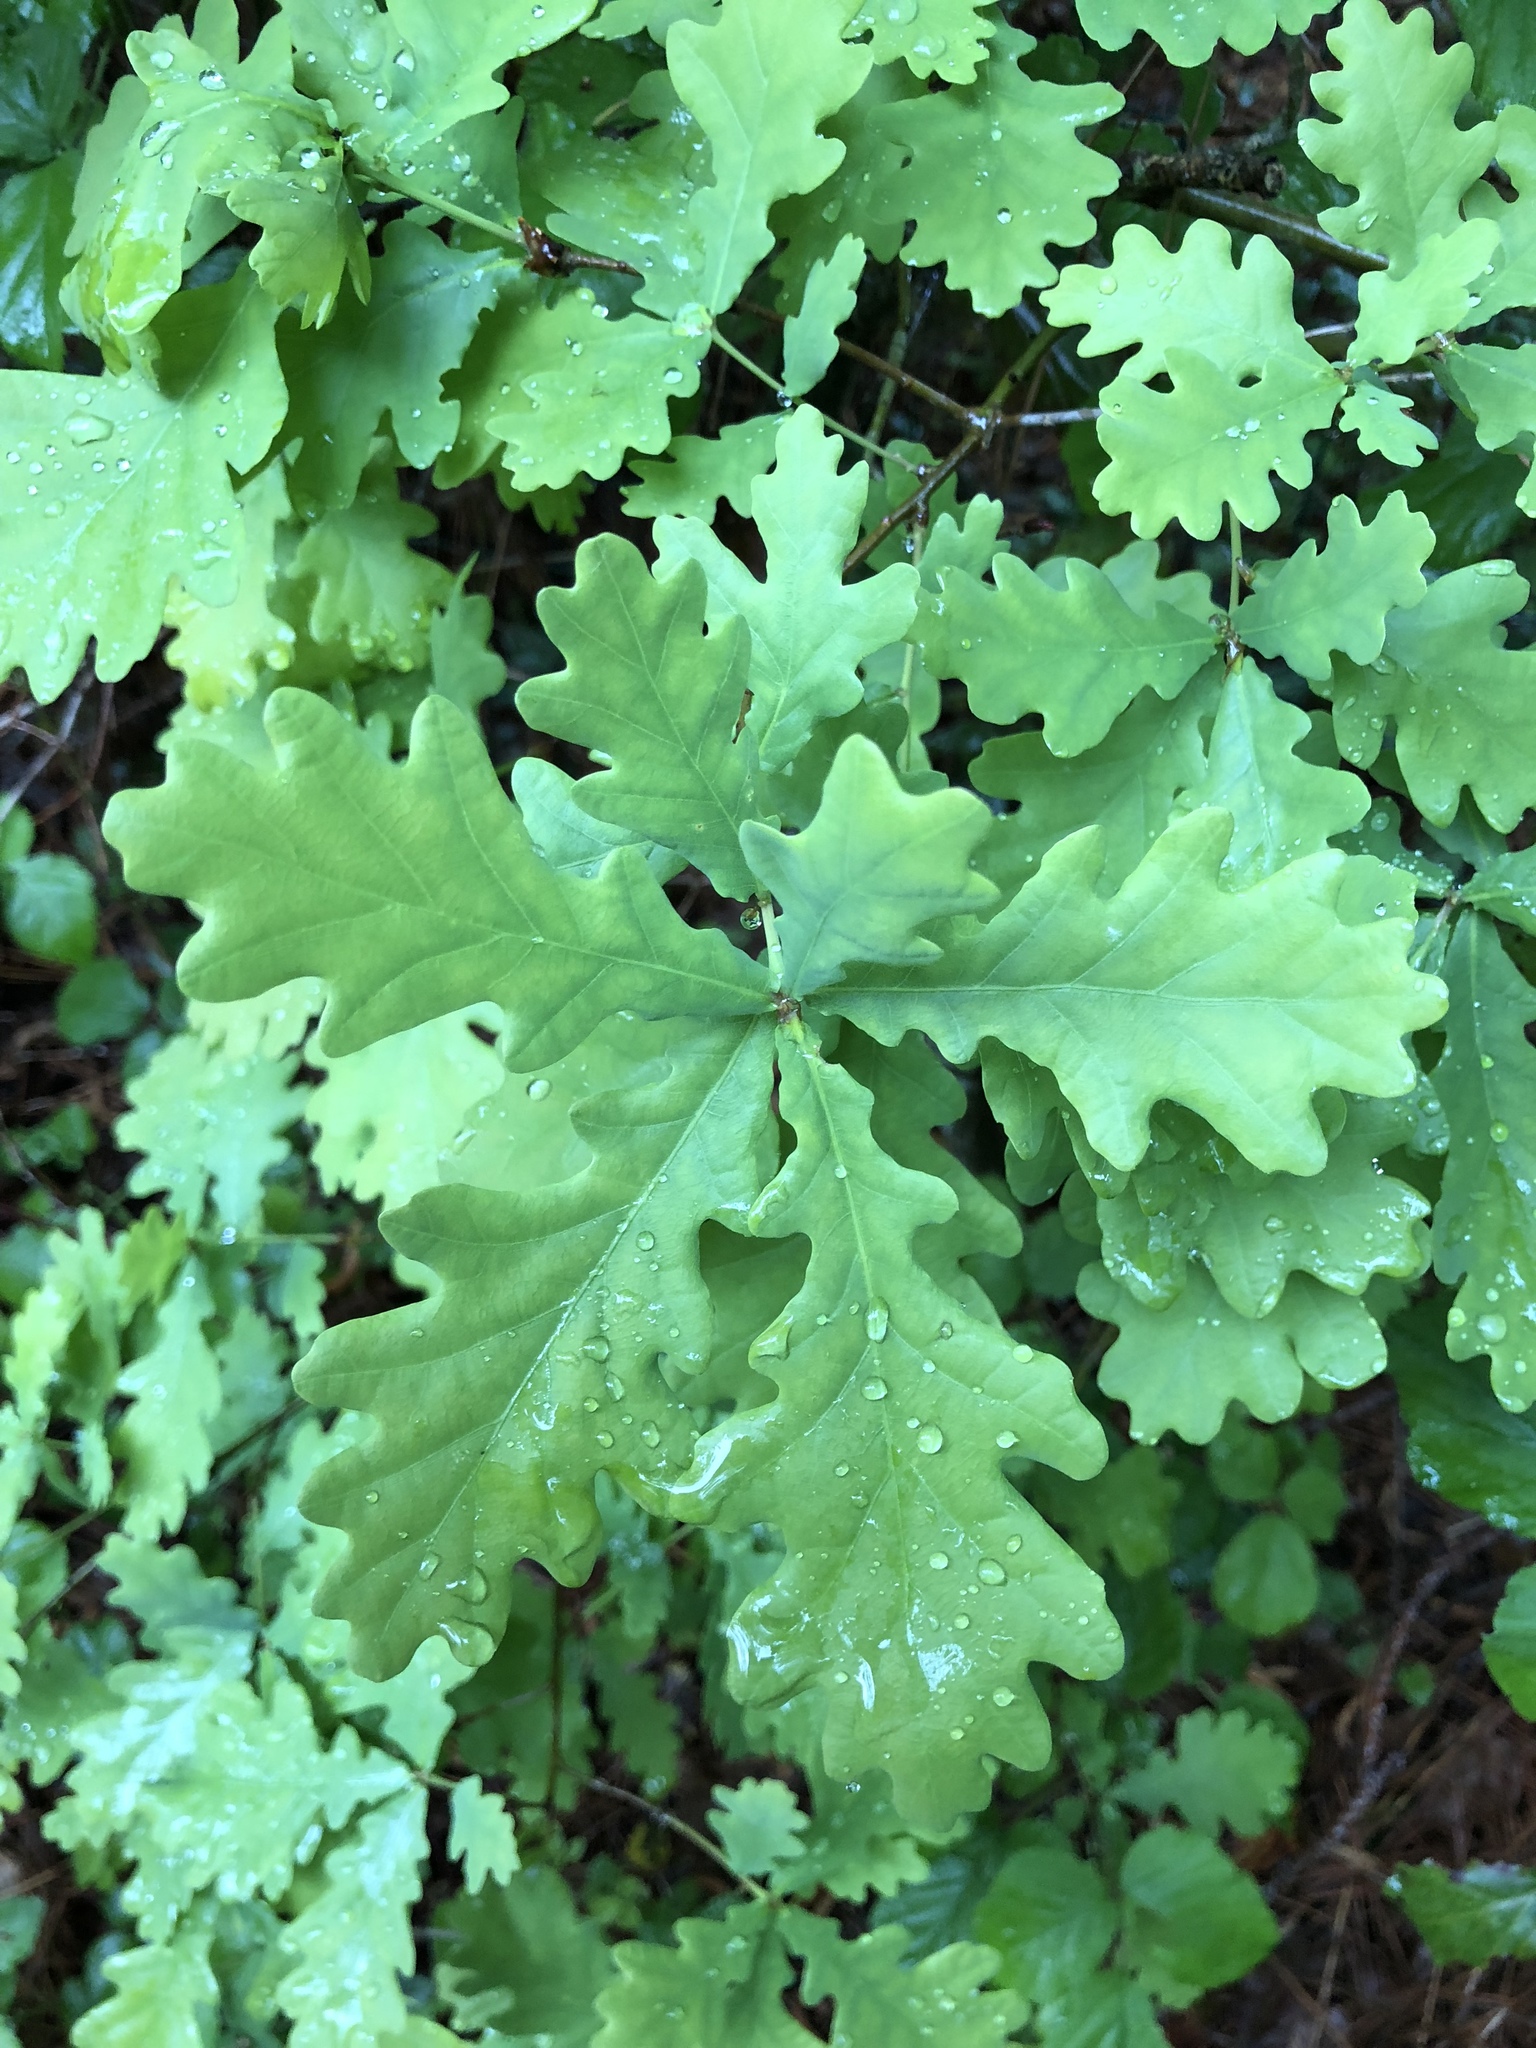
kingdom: Plantae
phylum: Tracheophyta
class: Magnoliopsida
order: Fagales
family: Fagaceae
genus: Quercus
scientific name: Quercus robur
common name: Pedunculate oak
